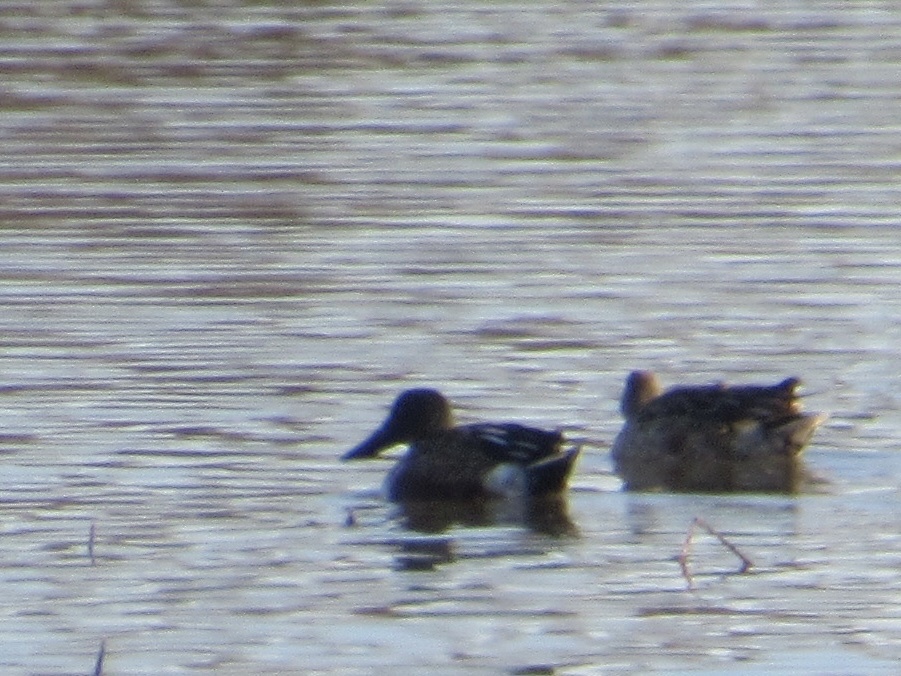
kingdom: Animalia
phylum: Chordata
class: Aves
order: Anseriformes
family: Anatidae
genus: Spatula
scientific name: Spatula clypeata
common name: Northern shoveler
